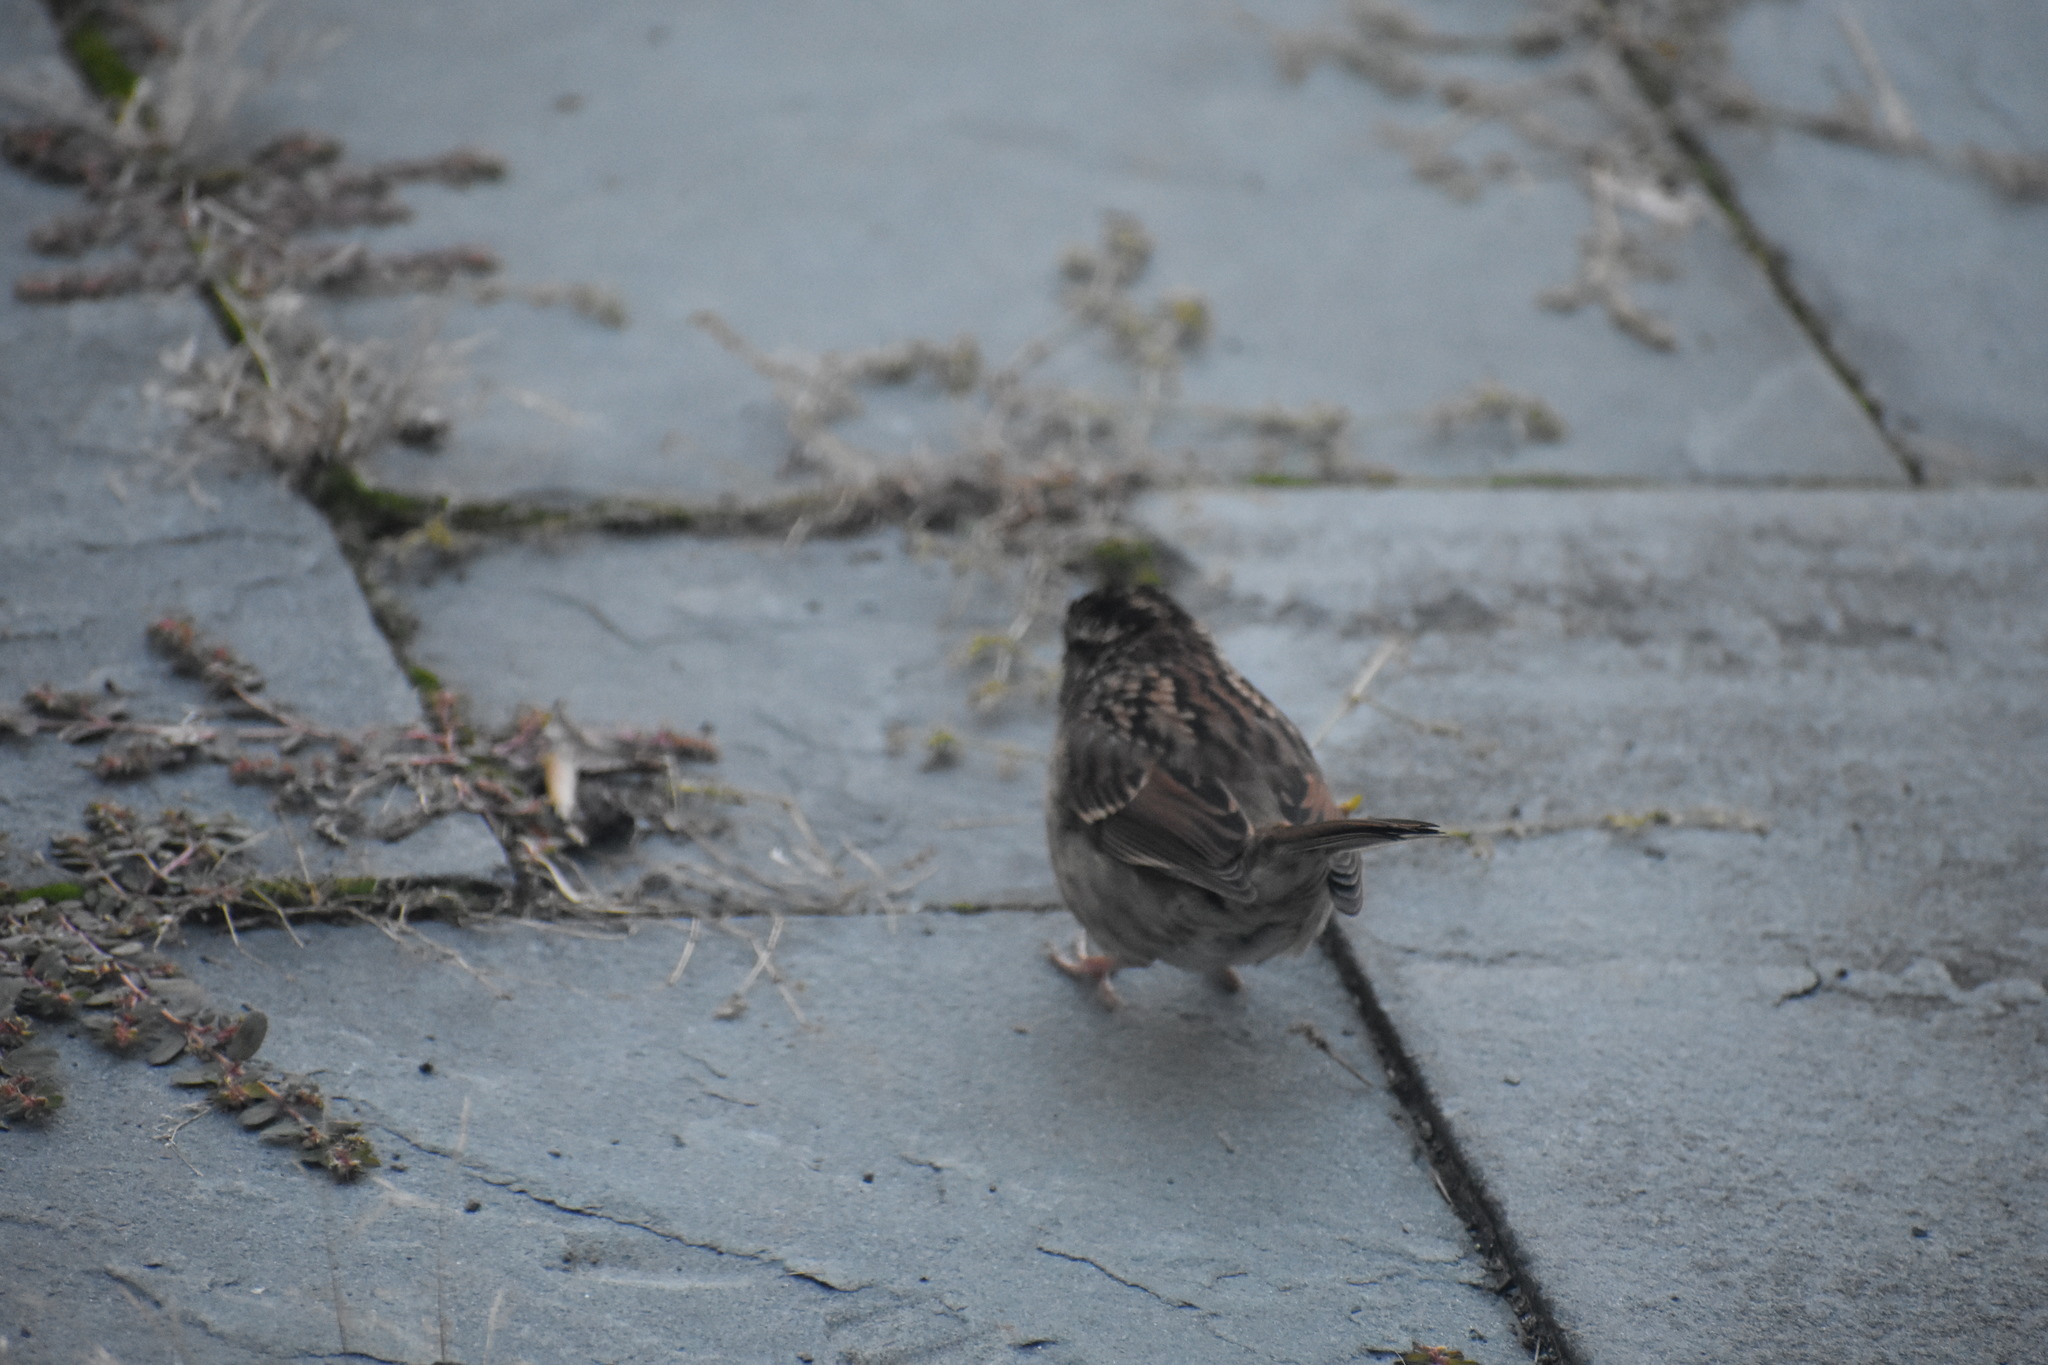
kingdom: Animalia
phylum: Chordata
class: Aves
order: Passeriformes
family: Passerellidae
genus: Zonotrichia
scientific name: Zonotrichia albicollis
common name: White-throated sparrow
